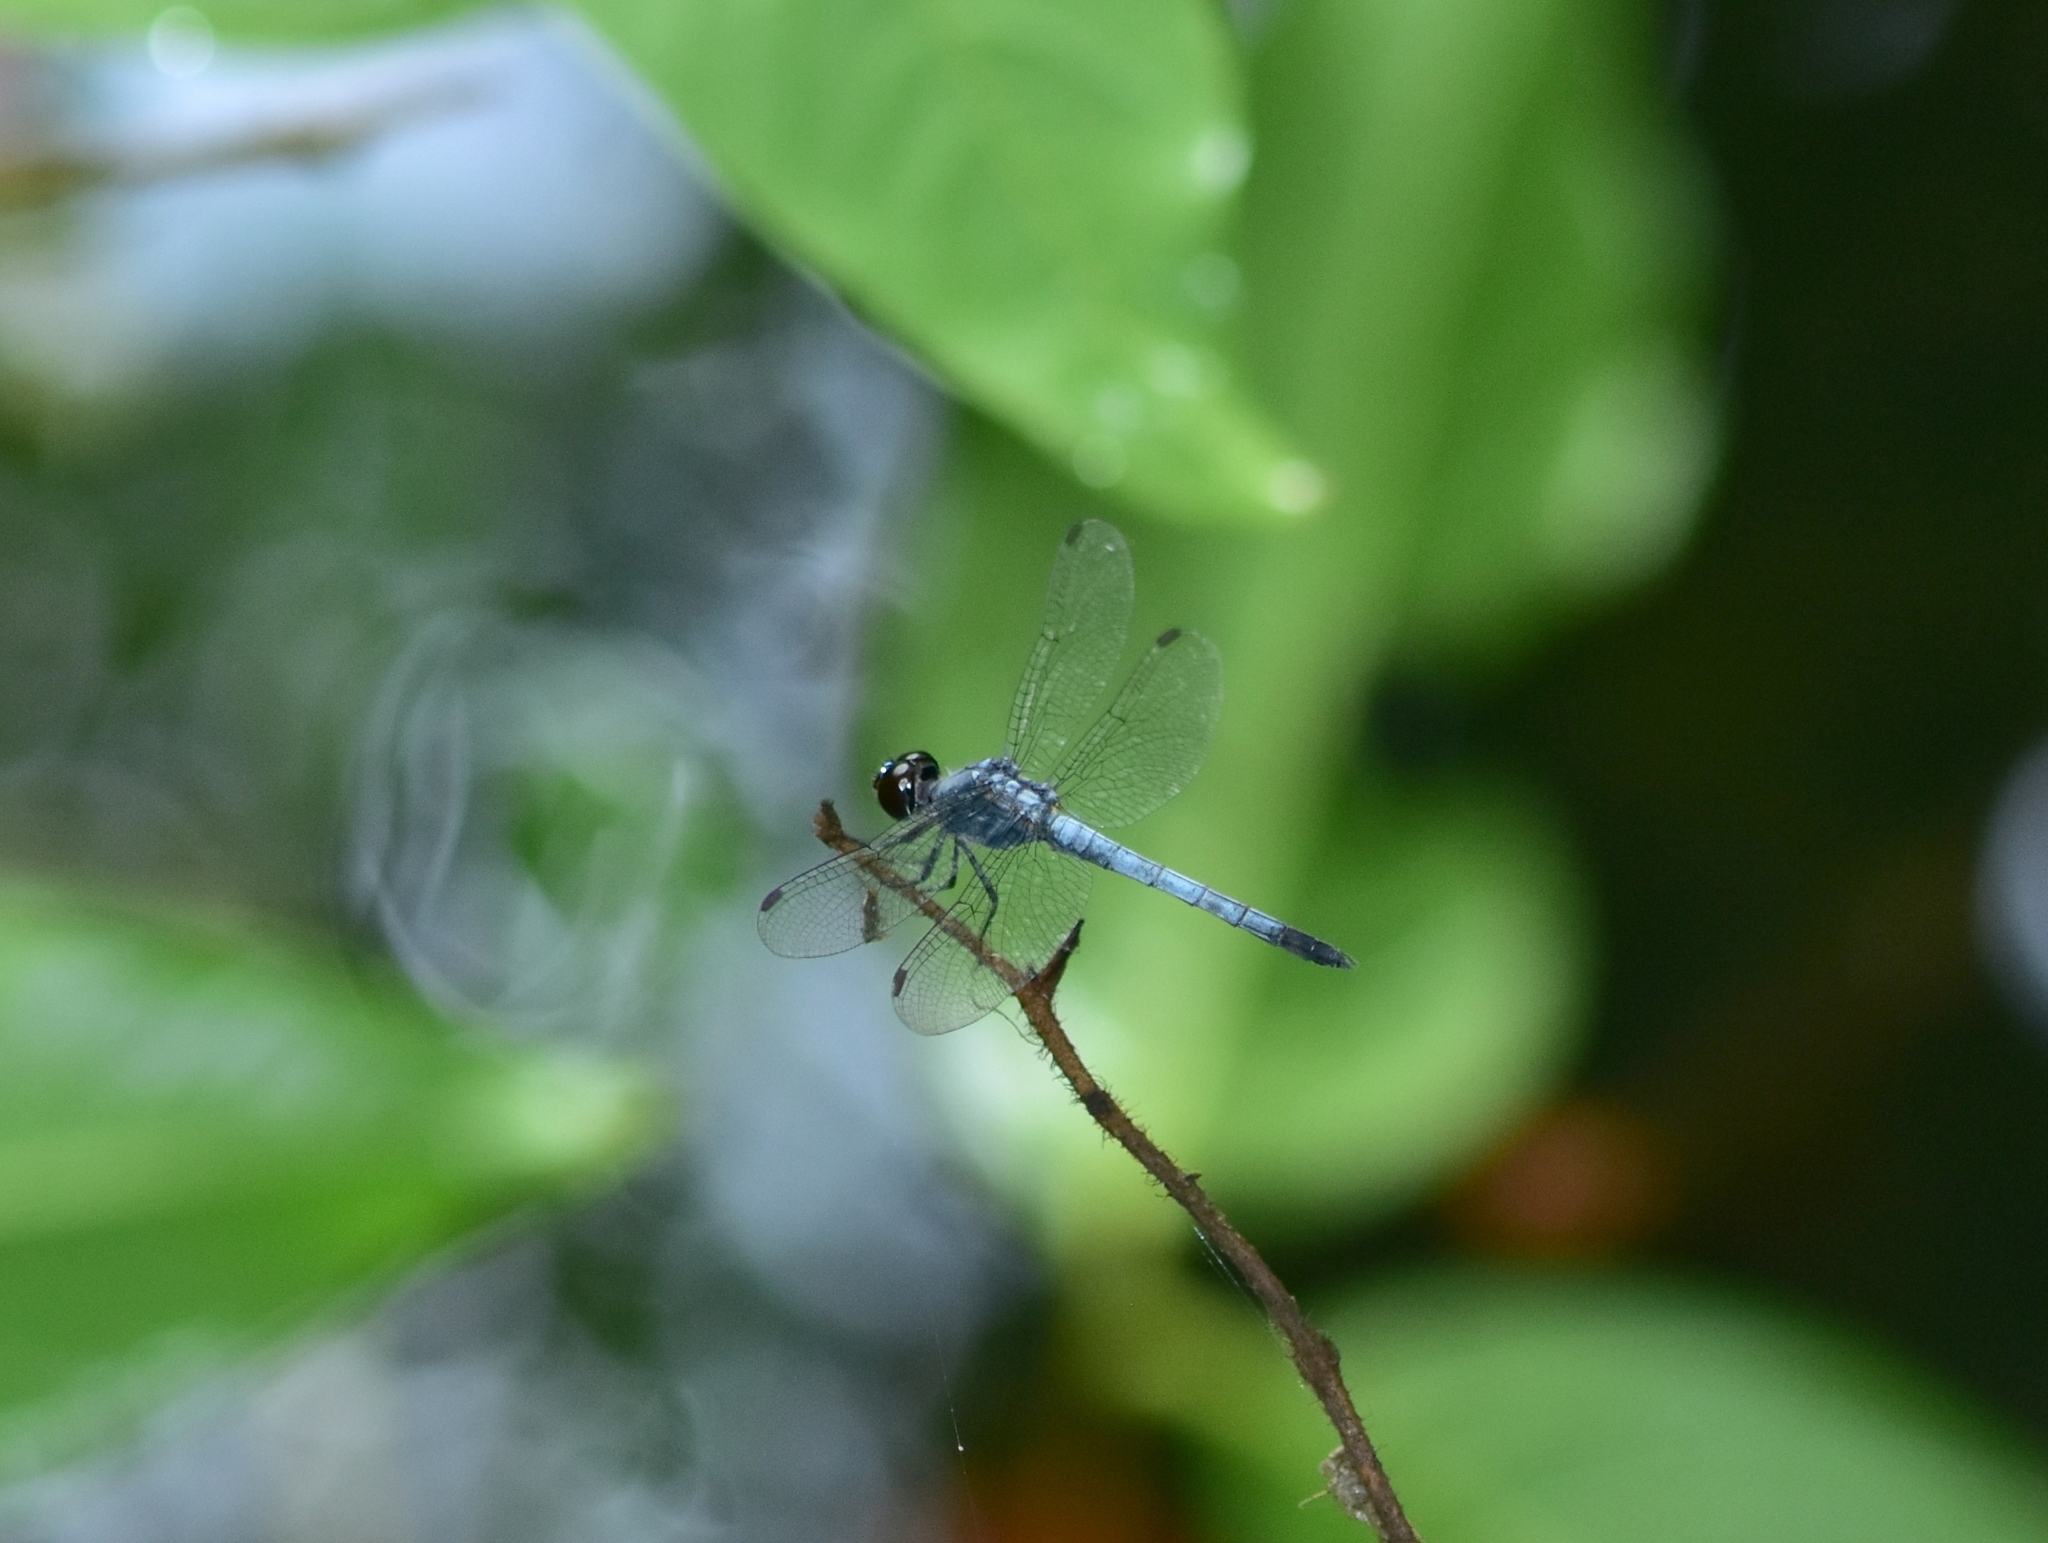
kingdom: Animalia
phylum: Arthropoda
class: Insecta
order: Odonata
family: Libellulidae
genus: Brachydiplax
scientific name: Brachydiplax sobrina
